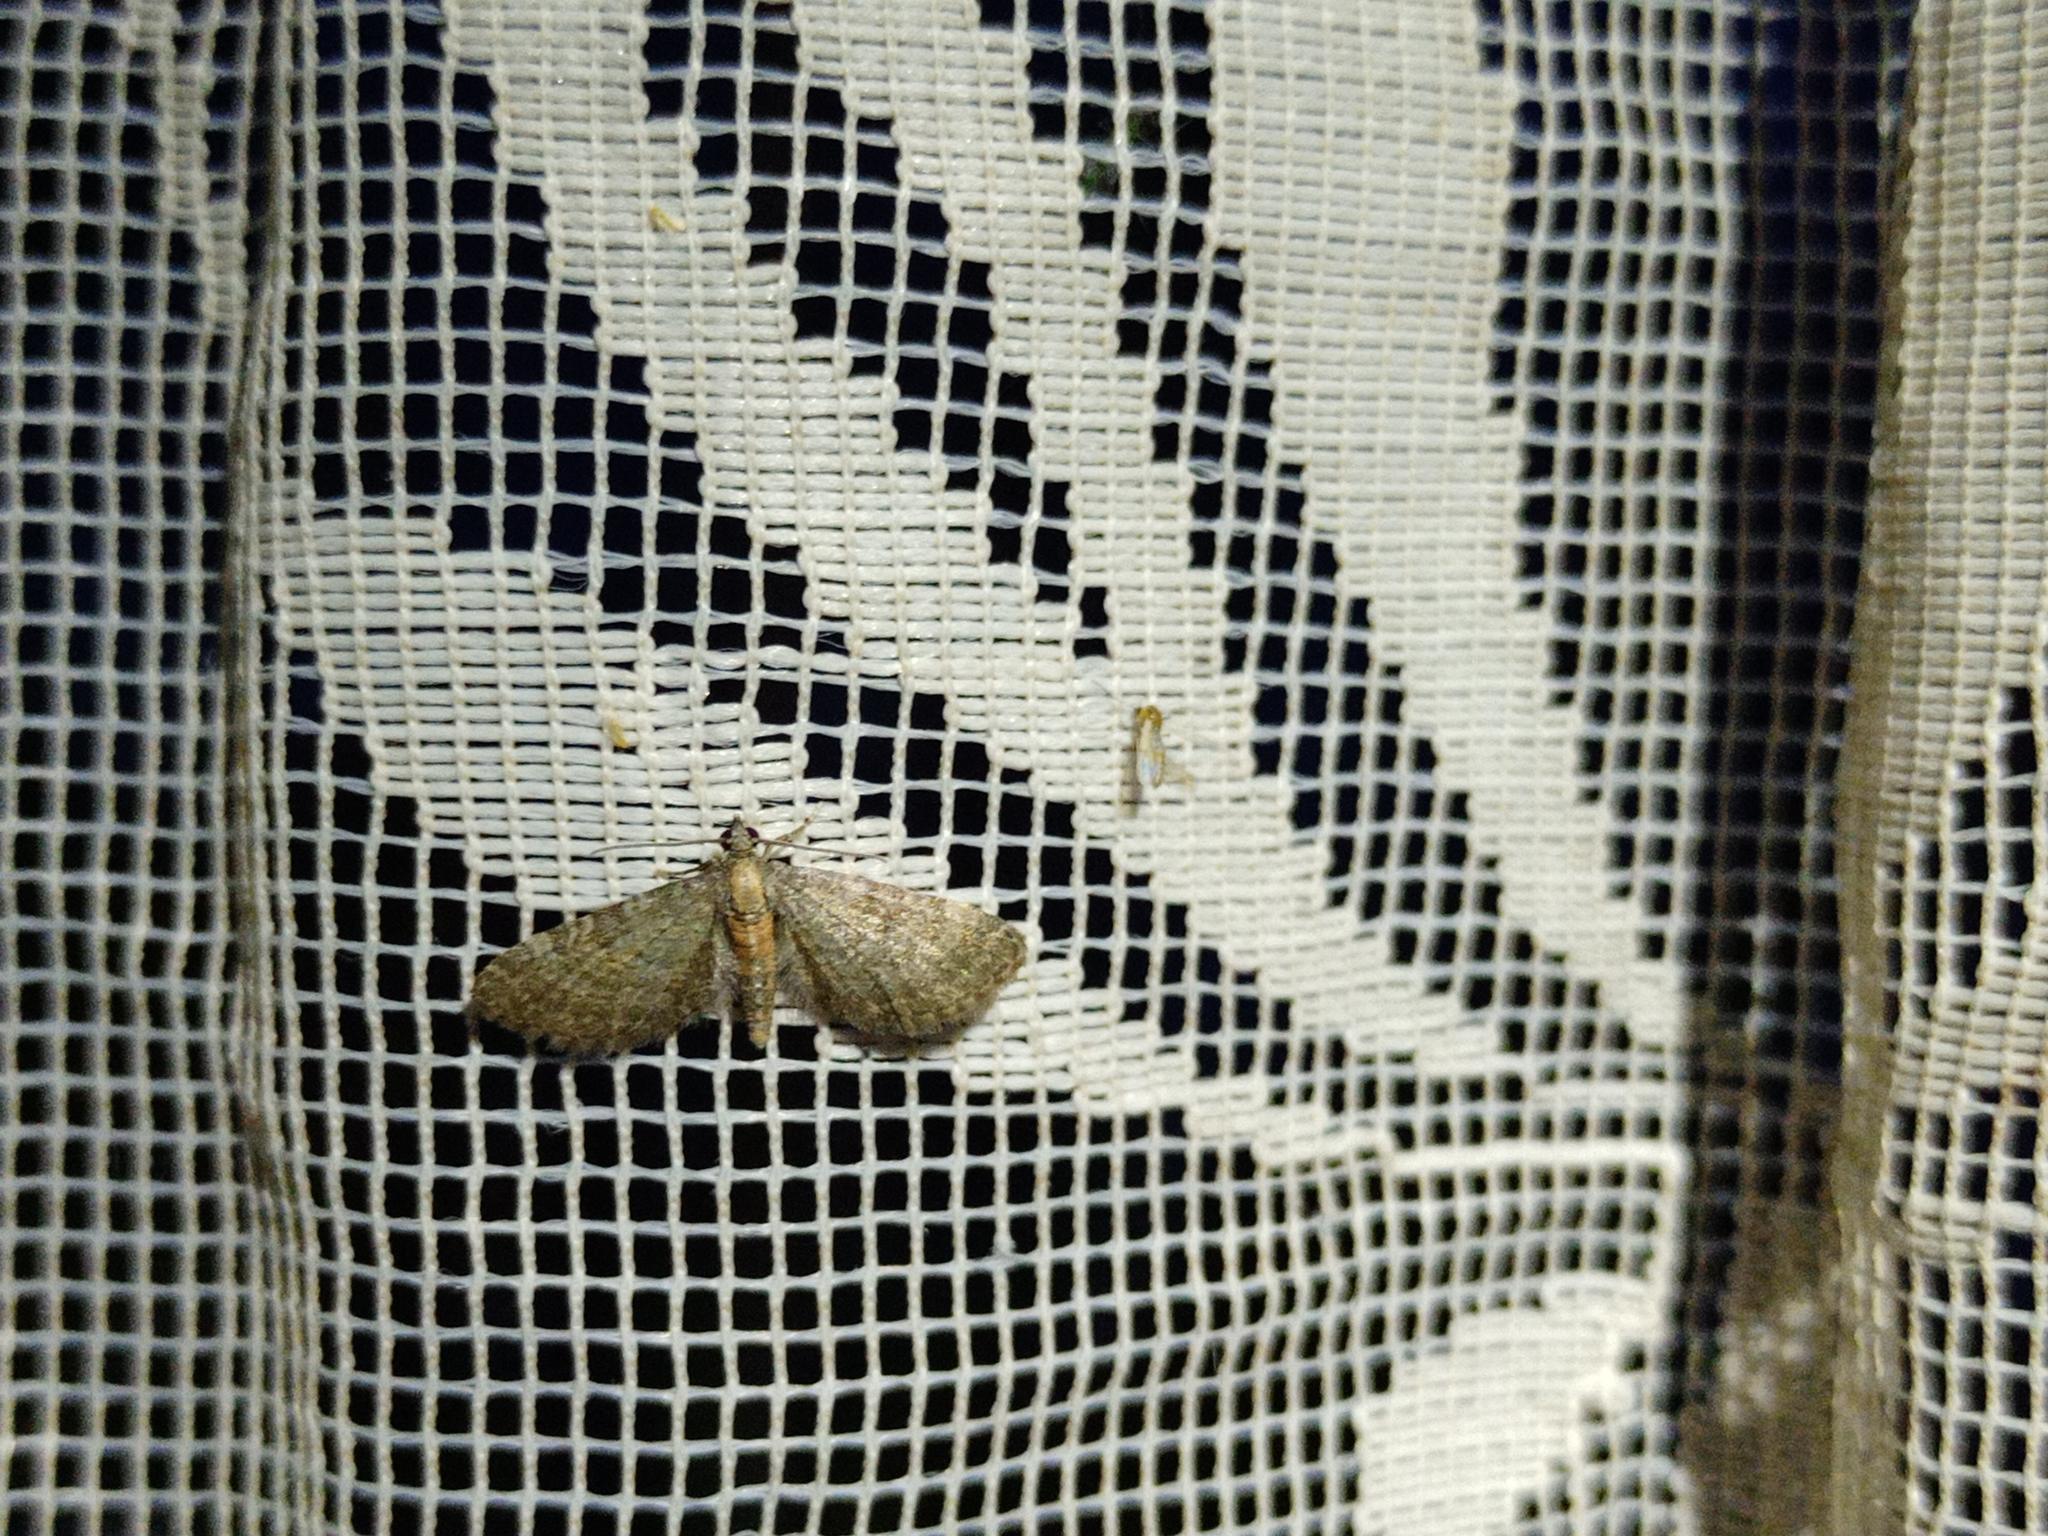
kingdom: Animalia
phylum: Arthropoda
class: Insecta
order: Lepidoptera
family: Geometridae
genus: Eupithecia
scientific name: Eupithecia haworthiata
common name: Haworth's pug
